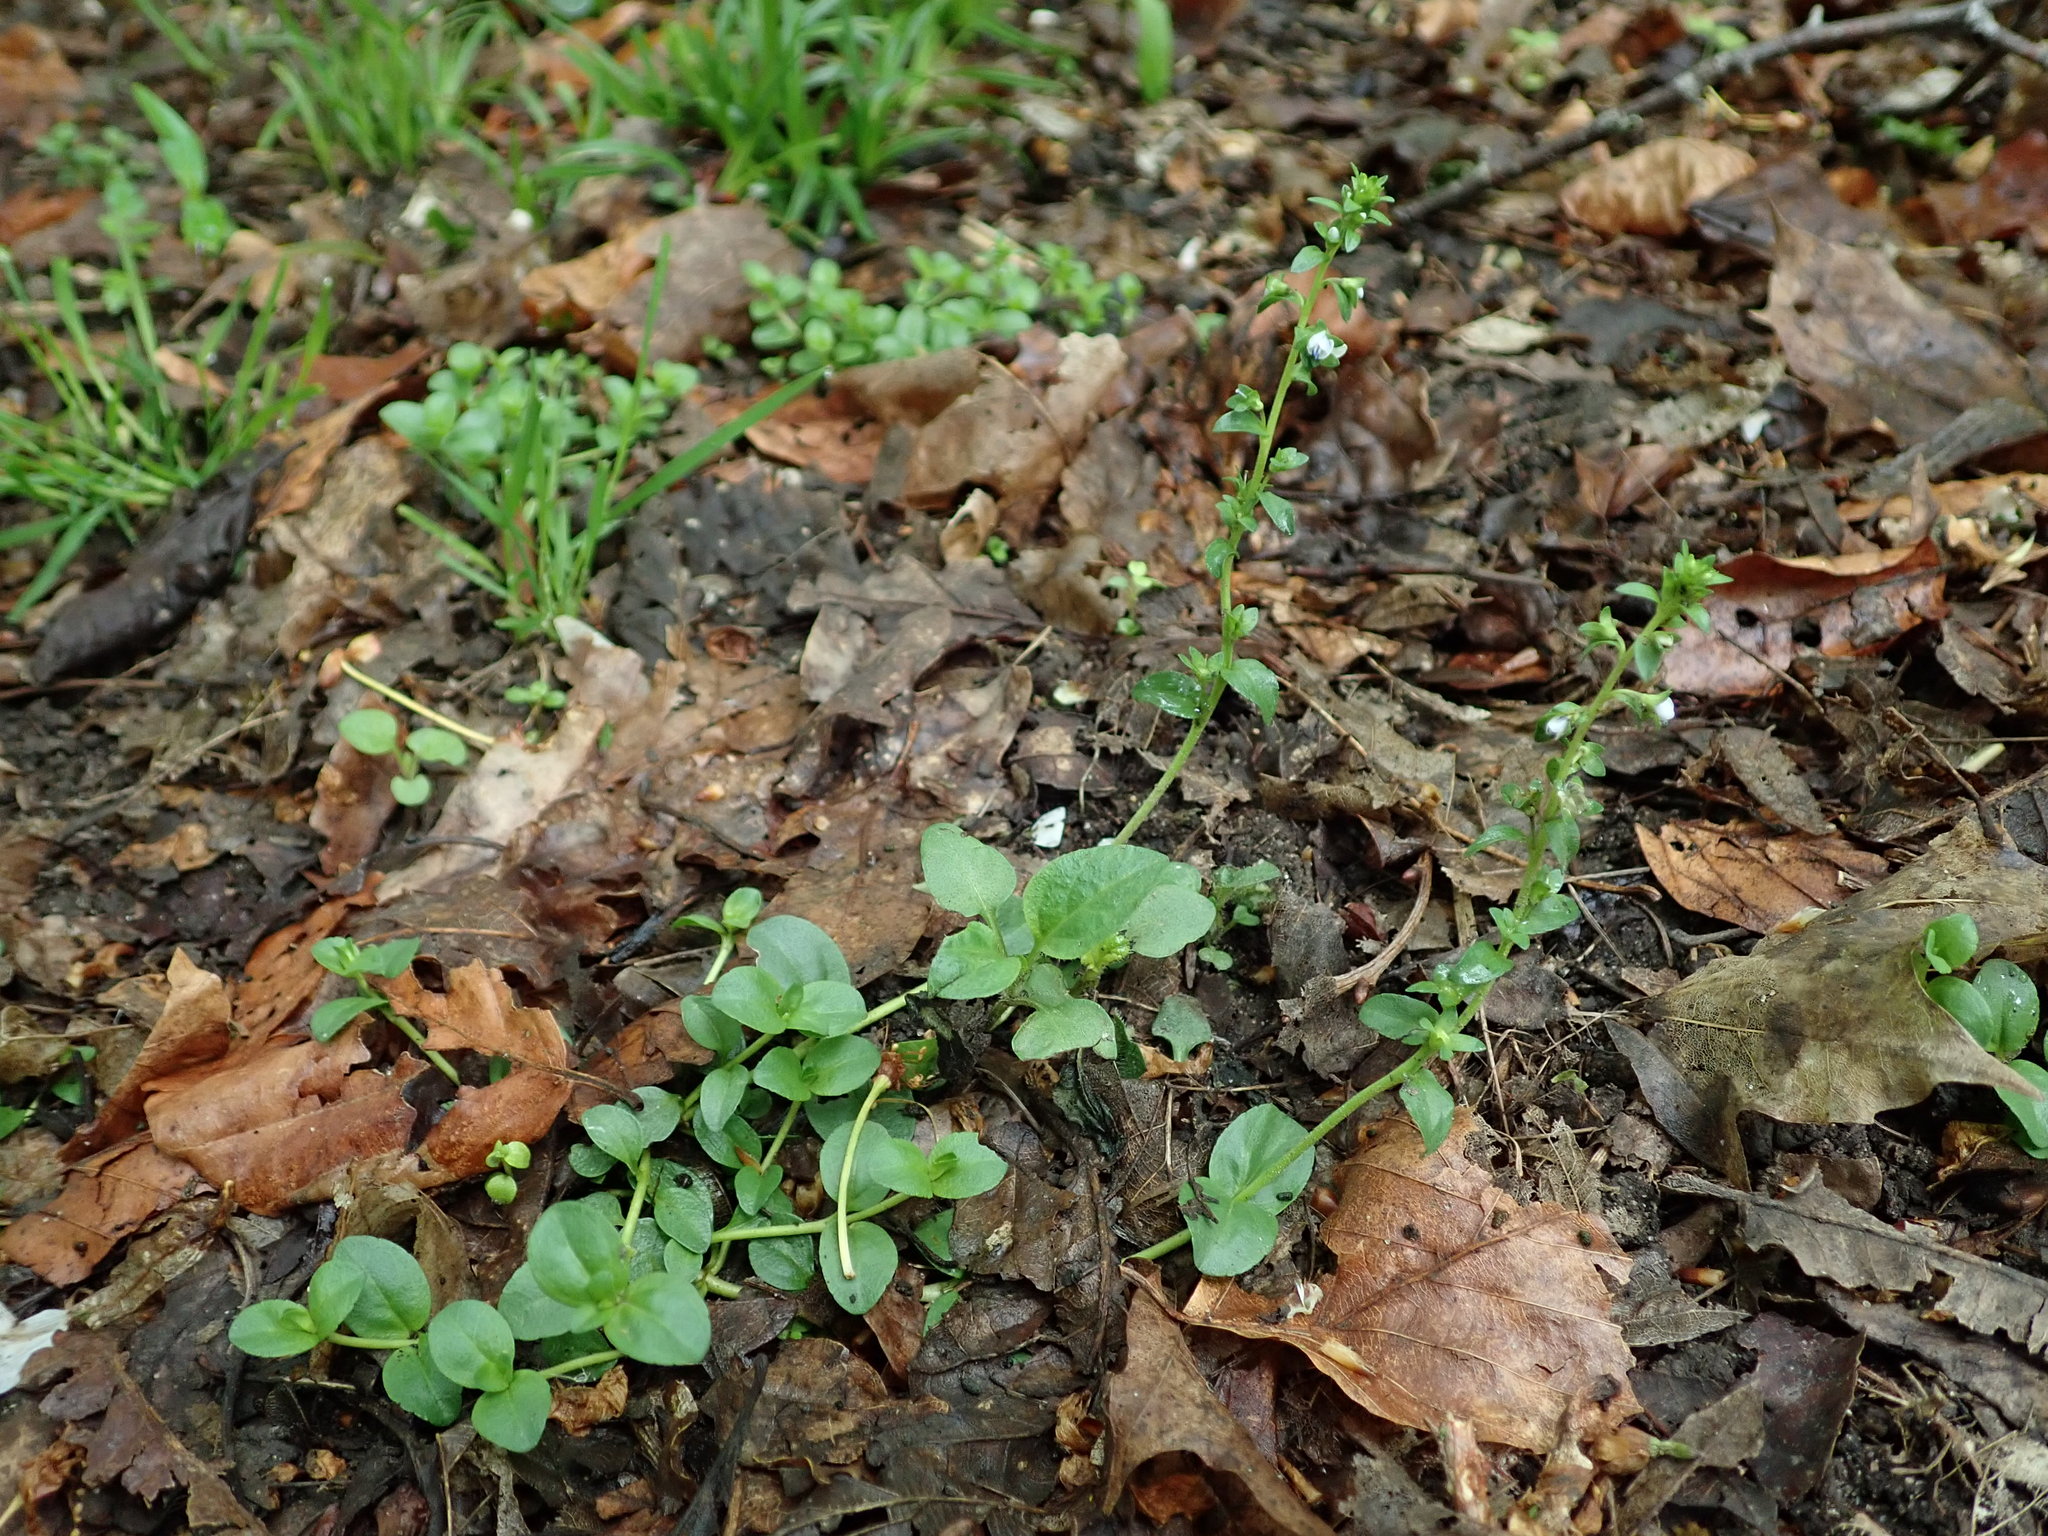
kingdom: Plantae
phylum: Tracheophyta
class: Magnoliopsida
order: Lamiales
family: Plantaginaceae
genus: Veronica
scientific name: Veronica serpyllifolia
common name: Thyme-leaved speedwell
